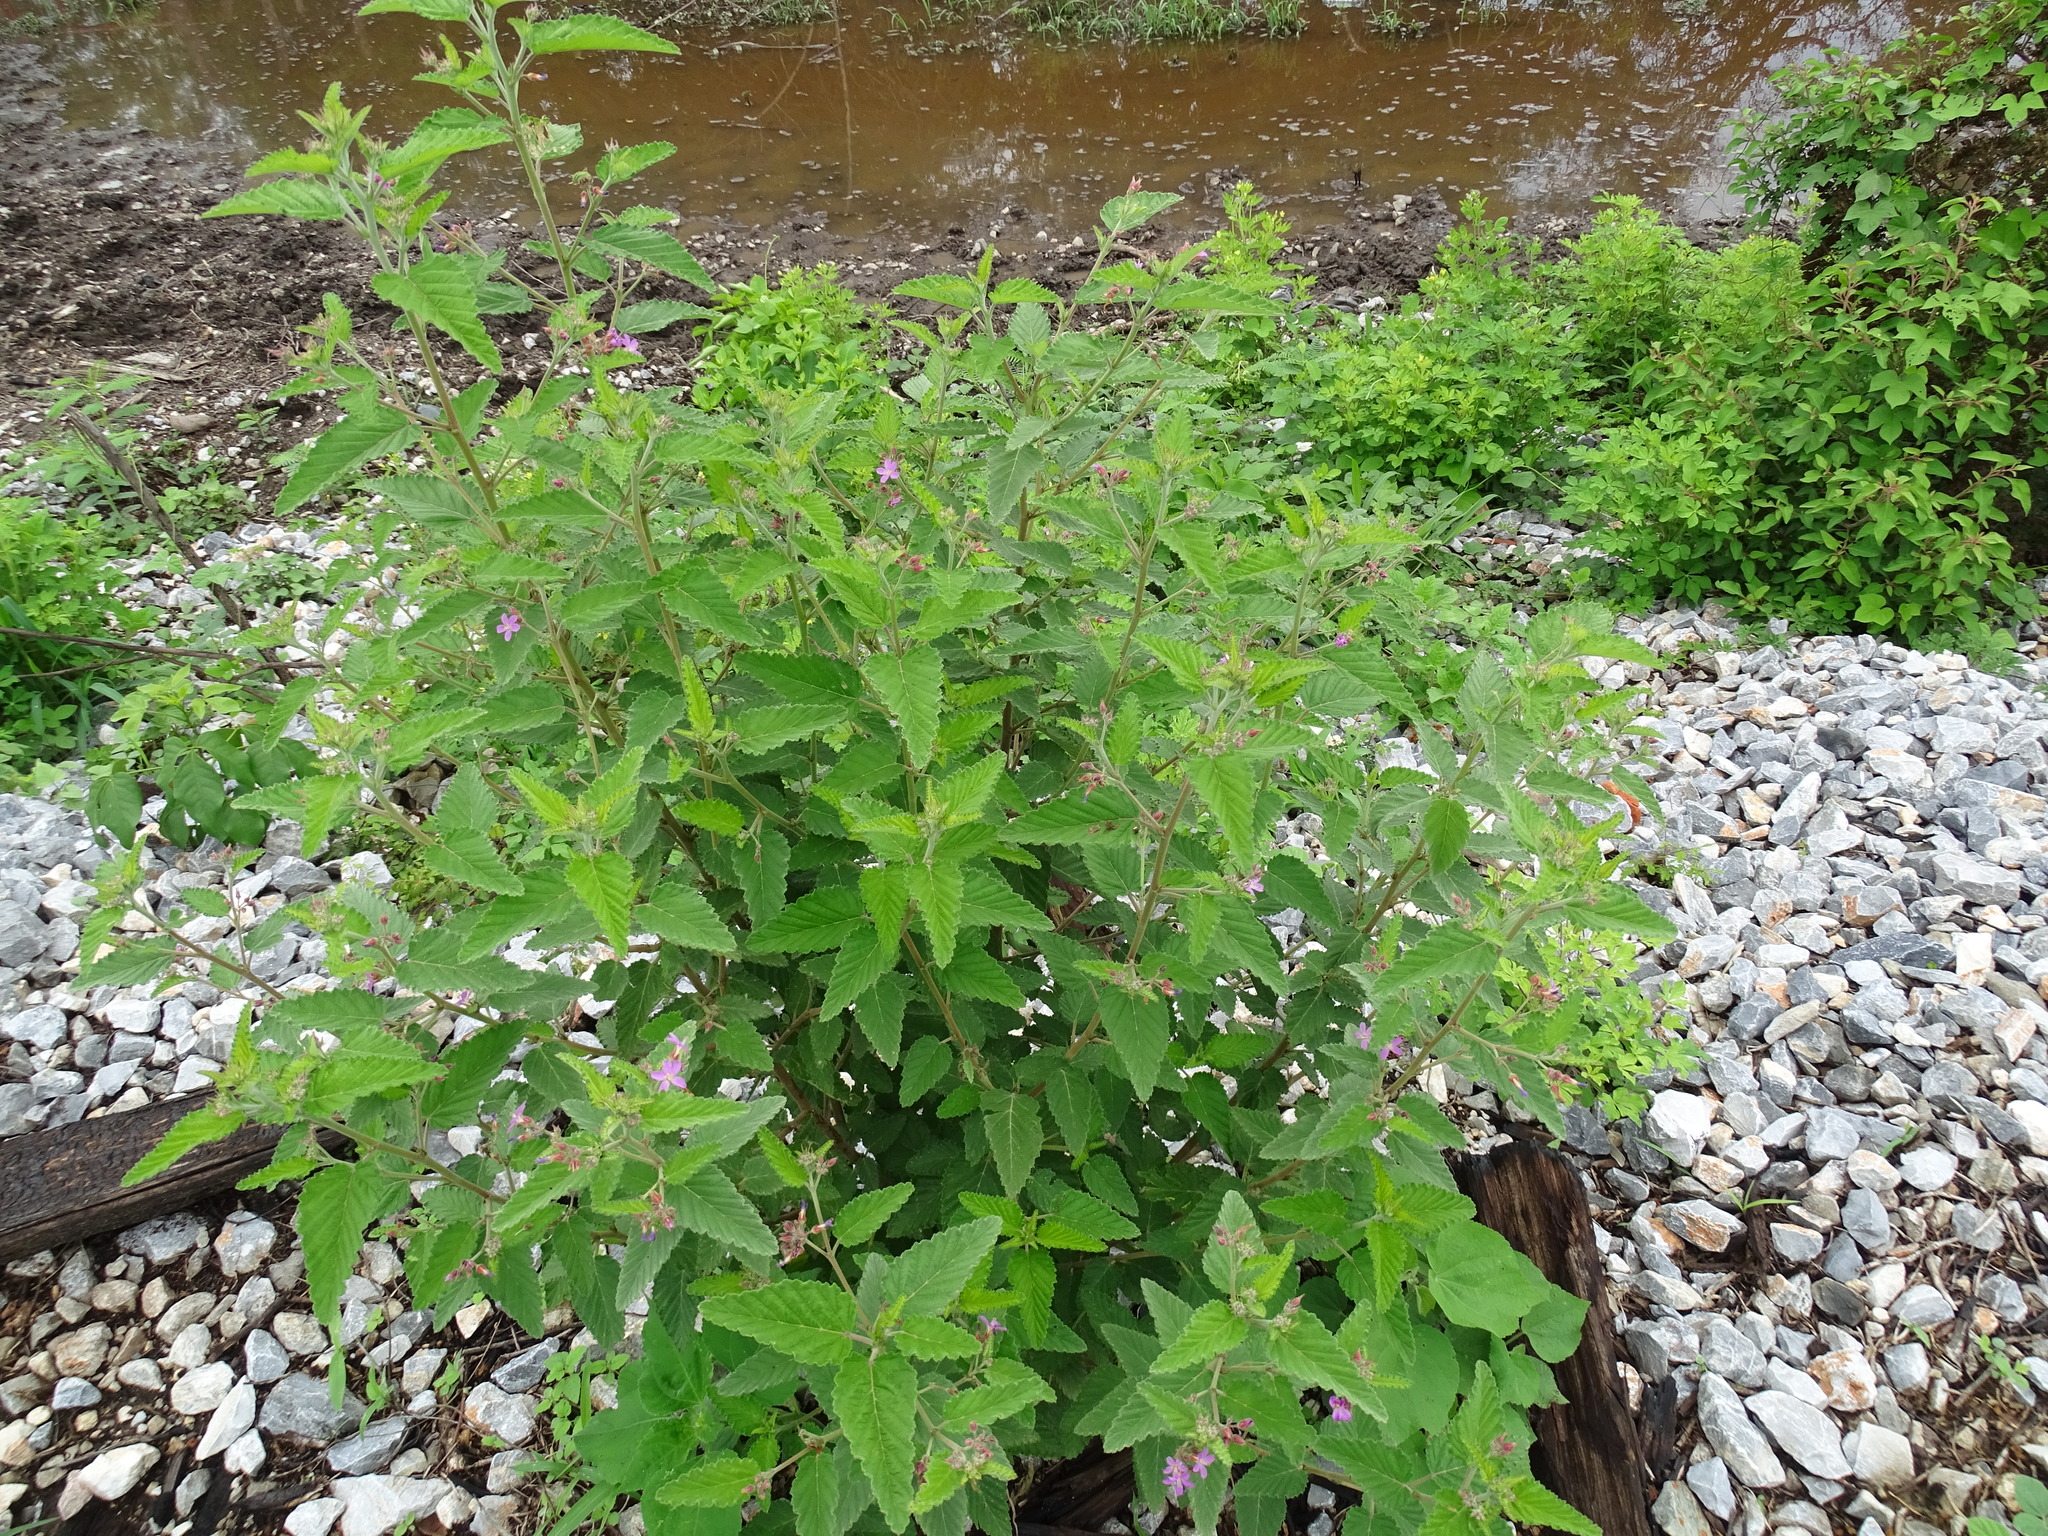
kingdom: Plantae
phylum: Tracheophyta
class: Magnoliopsida
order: Malvales
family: Malvaceae
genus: Melochia
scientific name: Melochia tomentosa
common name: Black torch
